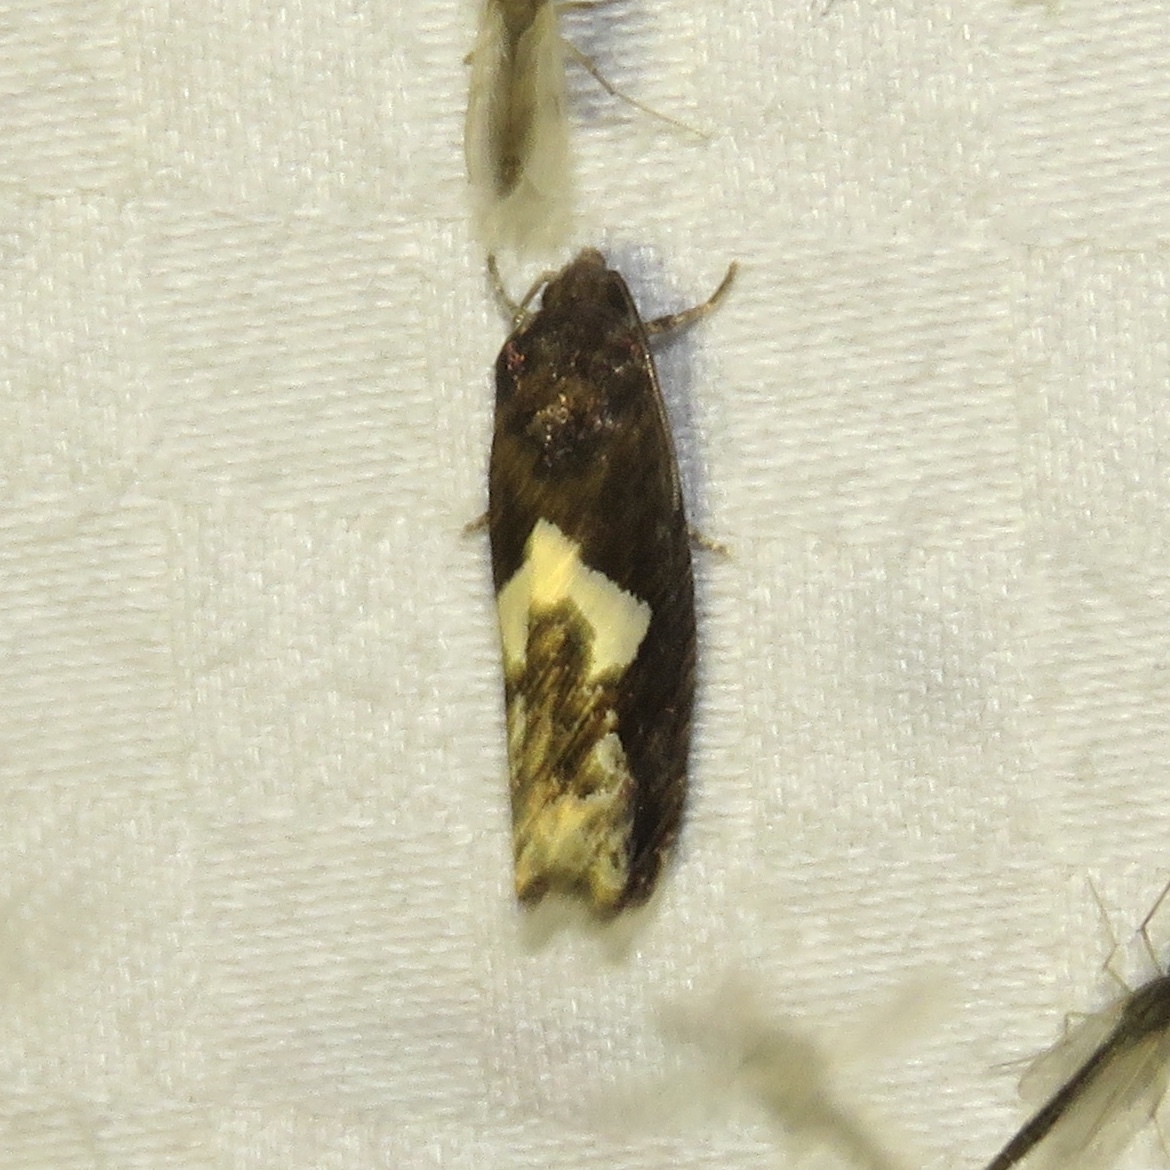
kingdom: Animalia
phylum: Arthropoda
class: Insecta
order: Lepidoptera
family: Tortricidae
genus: Epiblema
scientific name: Epiblema otiosana
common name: Bidens borer moth
